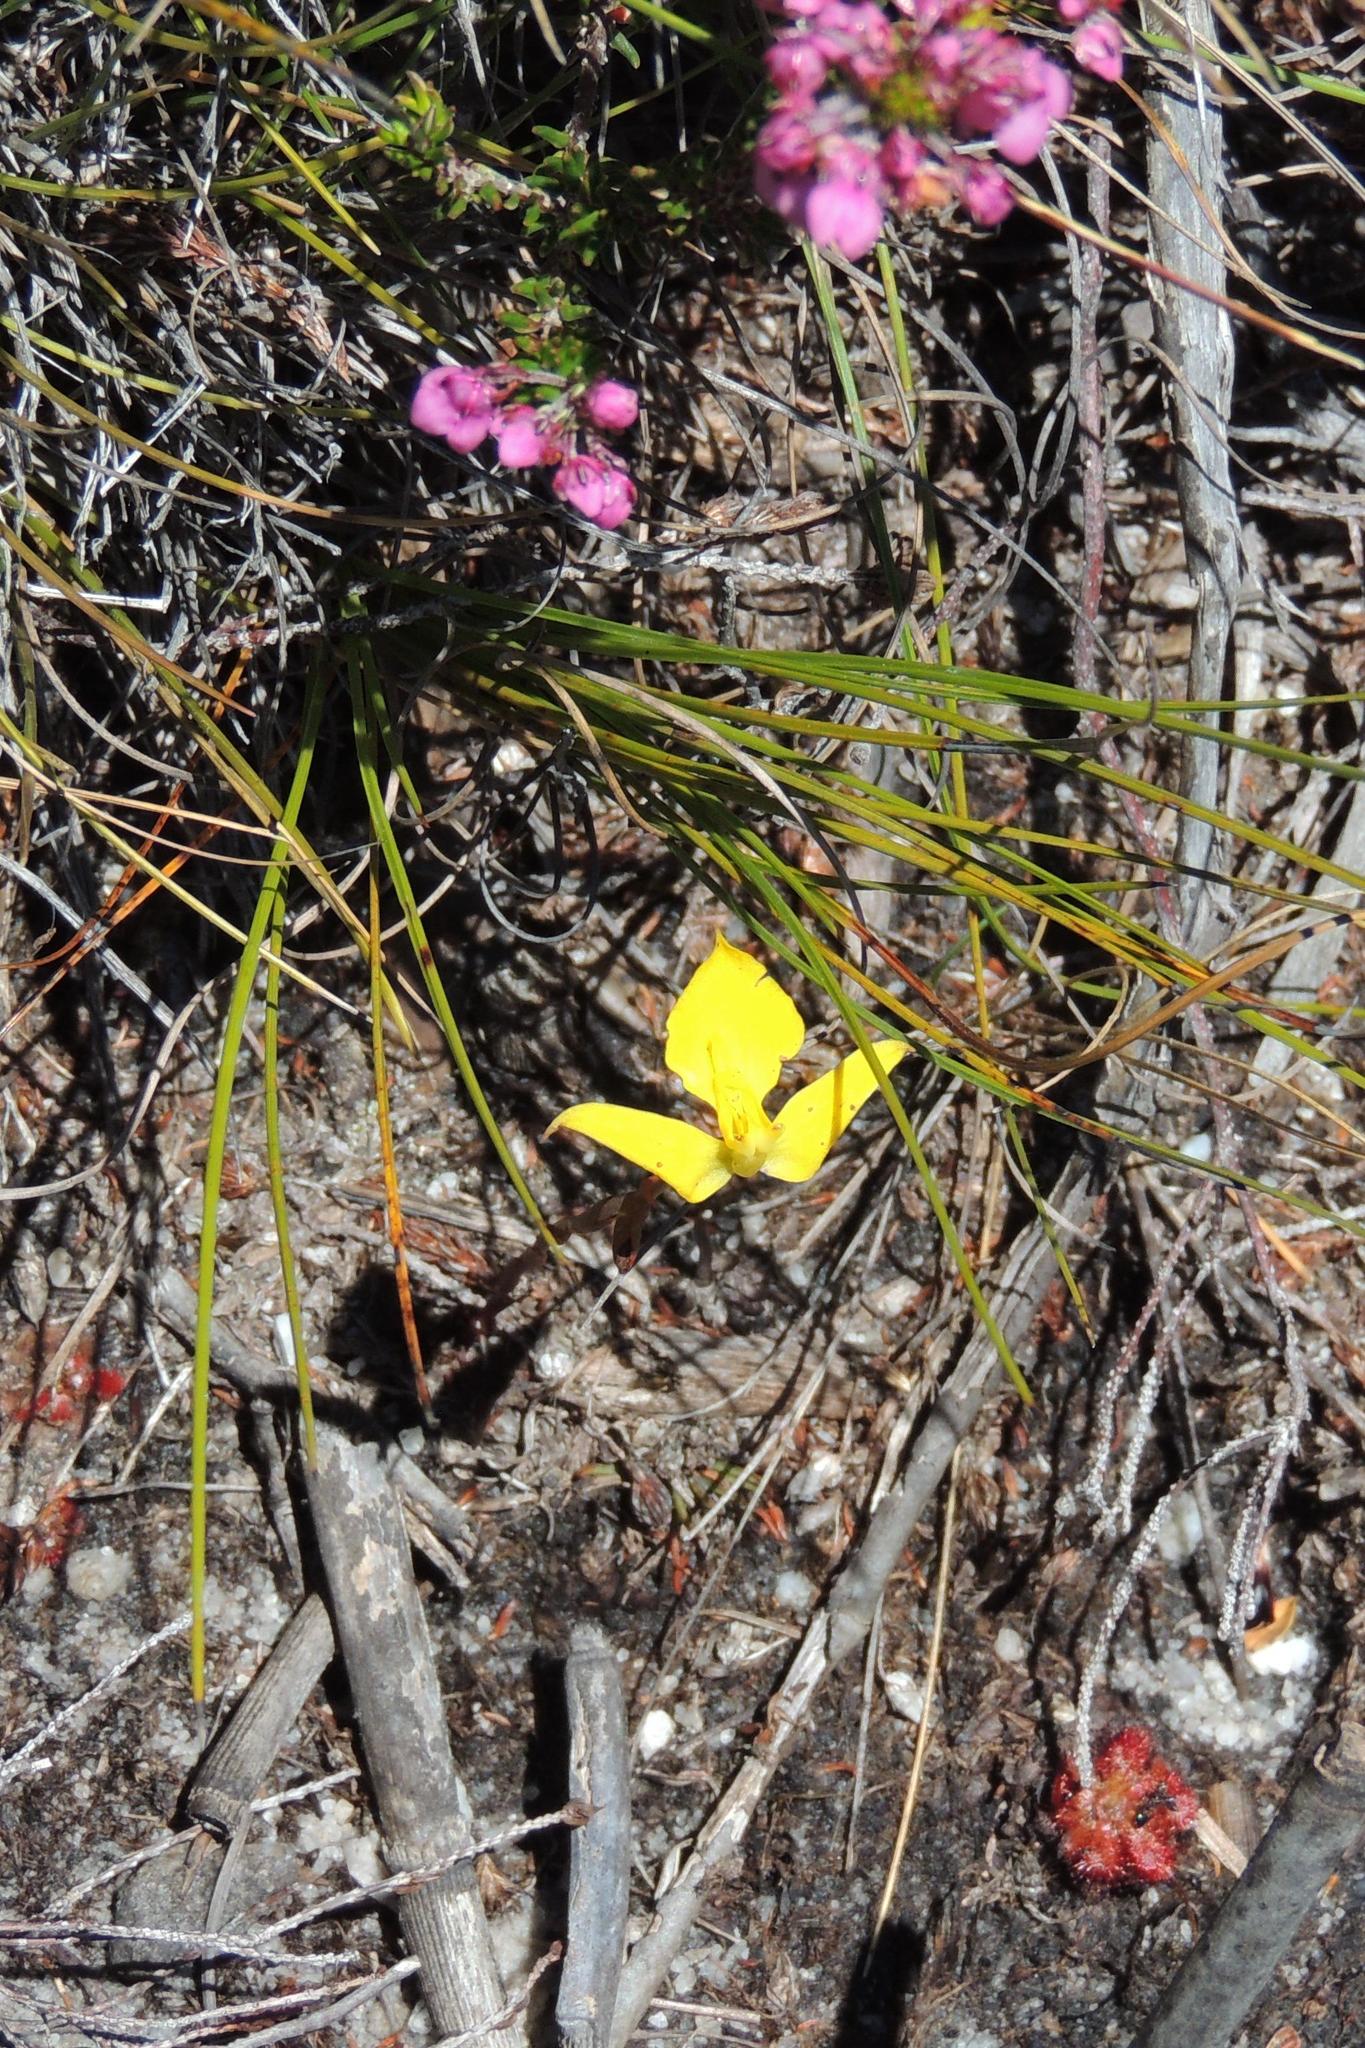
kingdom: Plantae
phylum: Tracheophyta
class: Liliopsida
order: Asparagales
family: Orchidaceae
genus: Disa
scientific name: Disa tenuifolia
